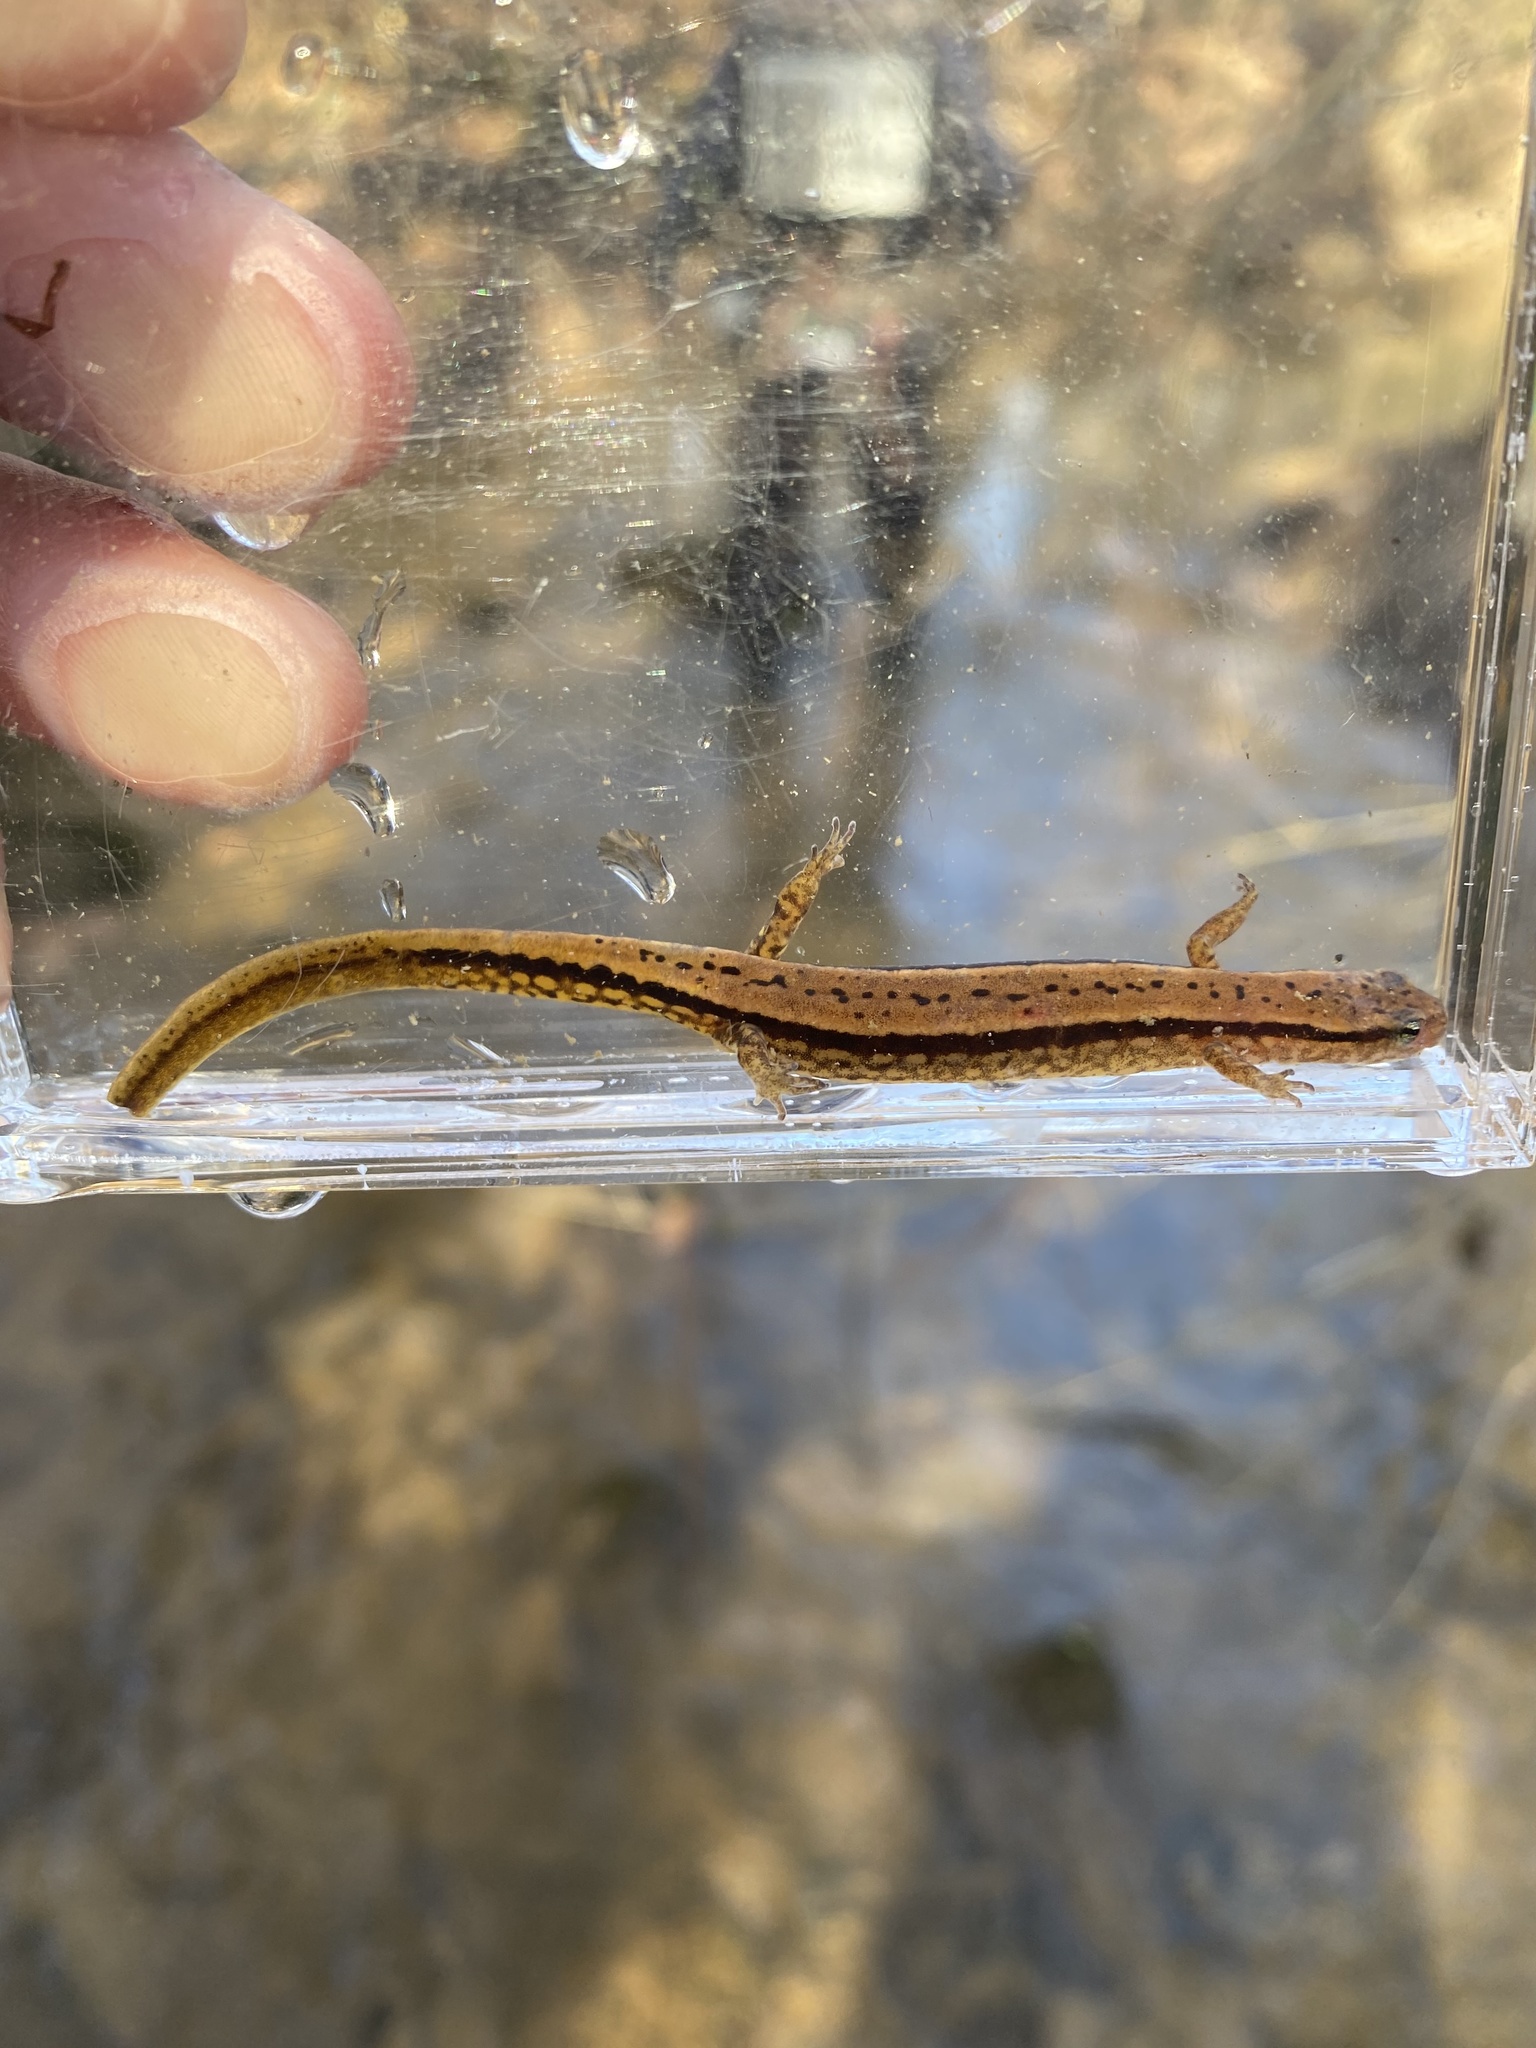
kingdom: Animalia
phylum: Chordata
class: Amphibia
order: Caudata
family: Plethodontidae
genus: Eurycea
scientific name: Eurycea cirrigera
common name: Southern two-lined salamander
